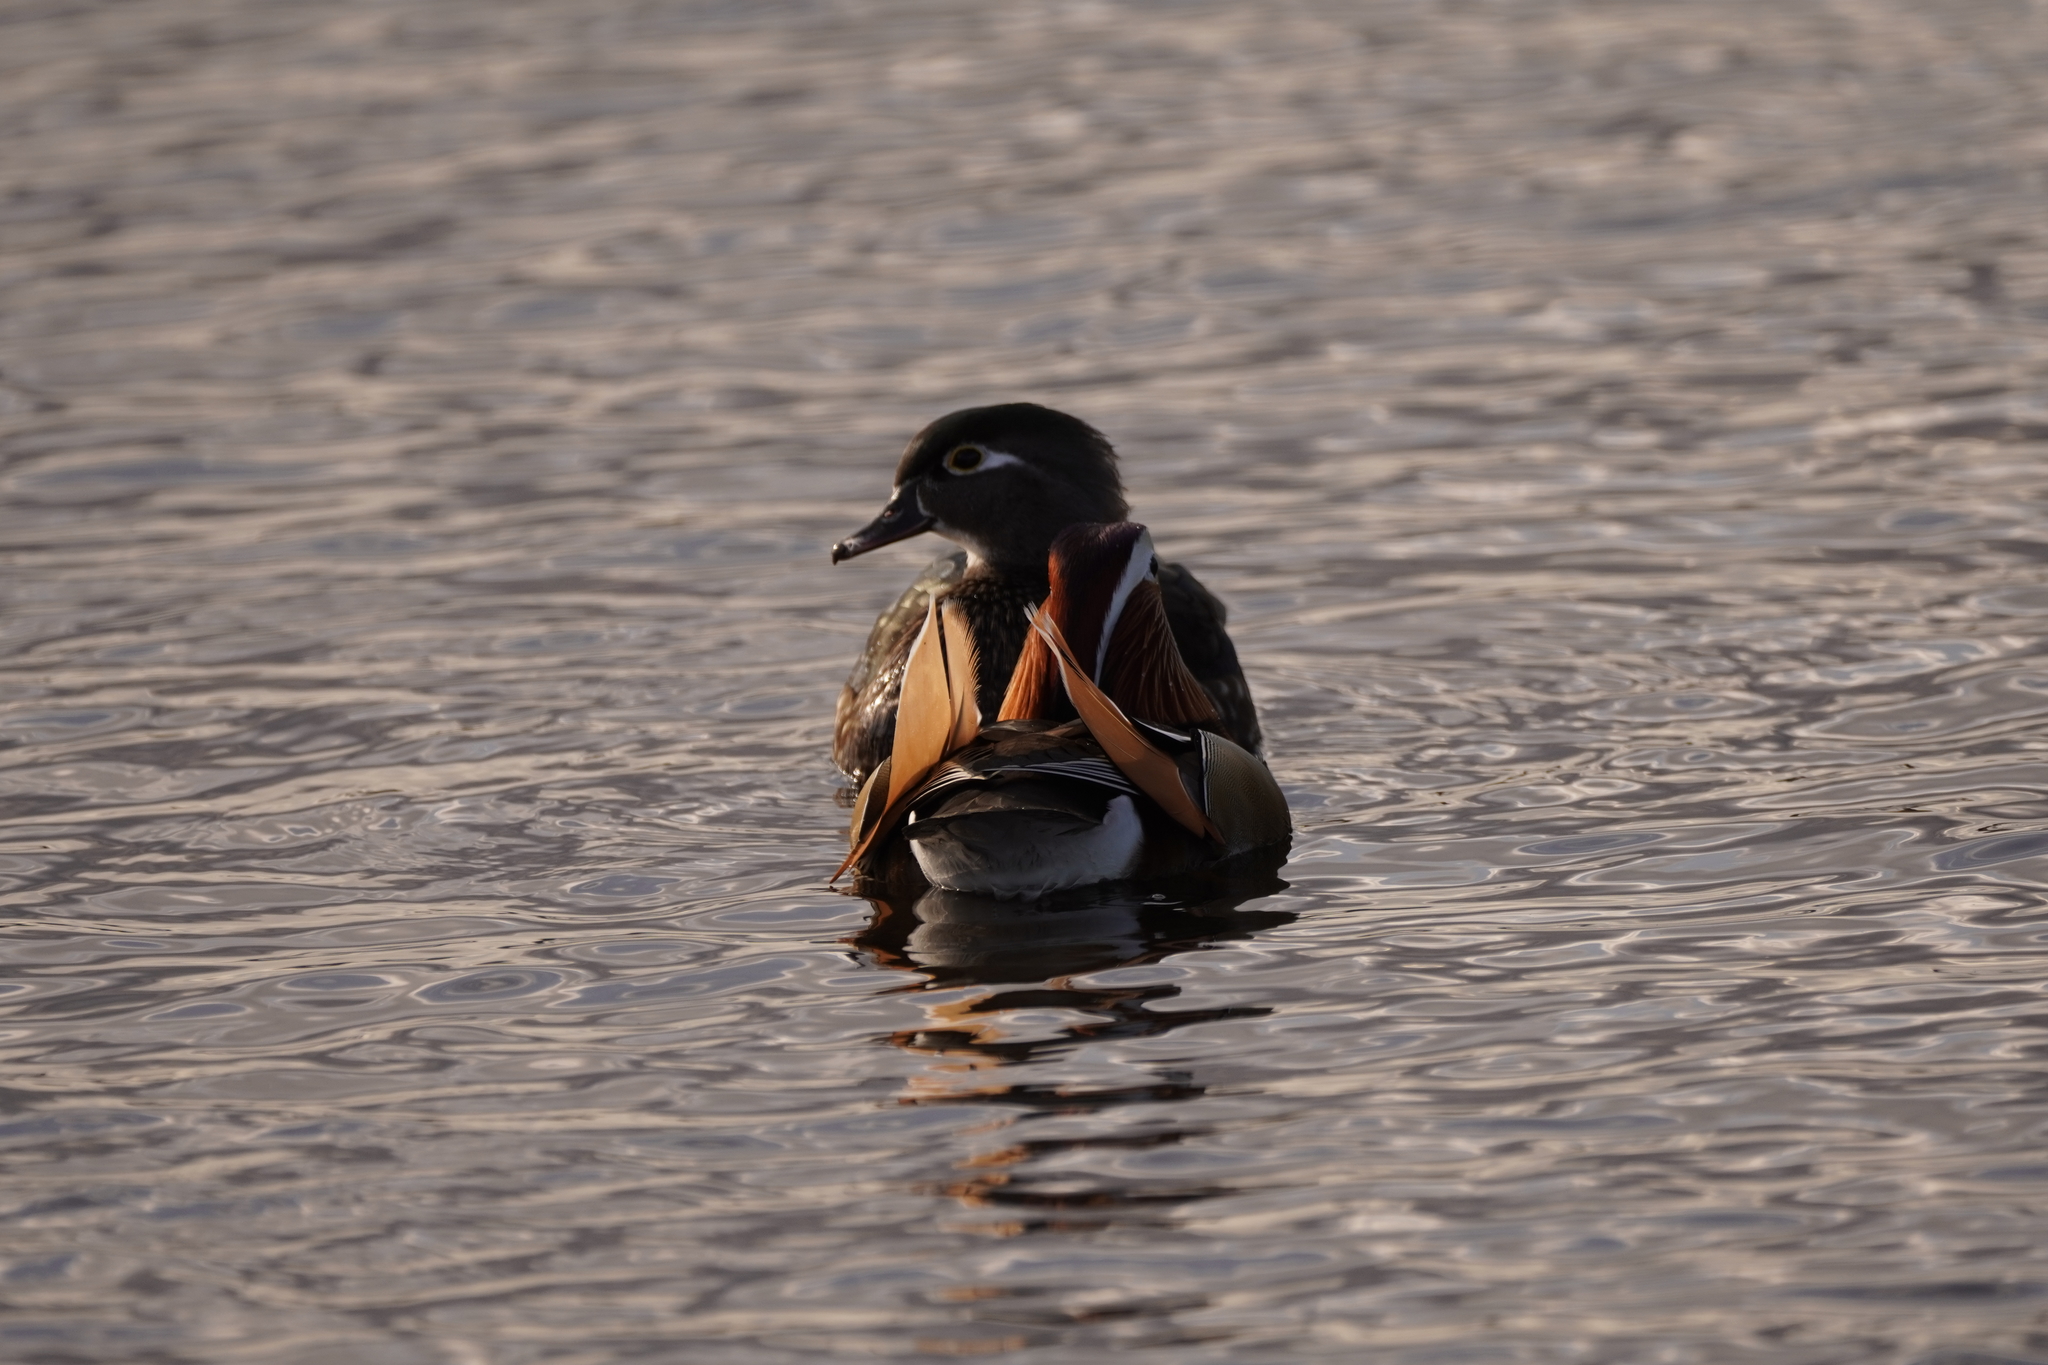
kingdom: Animalia
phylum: Chordata
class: Aves
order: Anseriformes
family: Anatidae
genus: Aix
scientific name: Aix galericulata
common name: Mandarin duck
